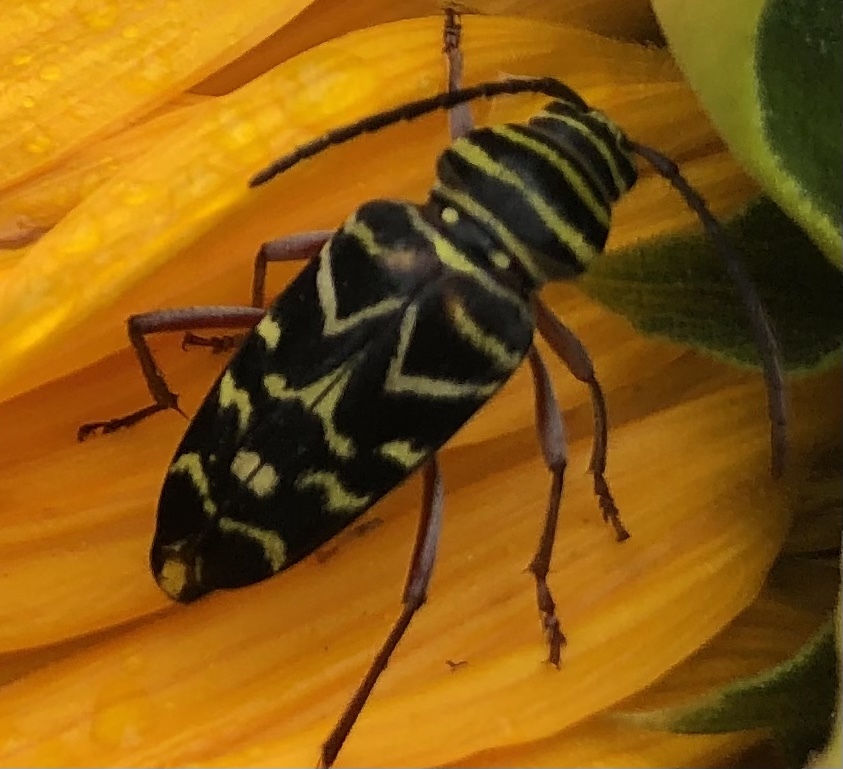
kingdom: Animalia
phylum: Arthropoda
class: Insecta
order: Coleoptera
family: Cerambycidae
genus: Megacyllene
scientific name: Megacyllene caryae
